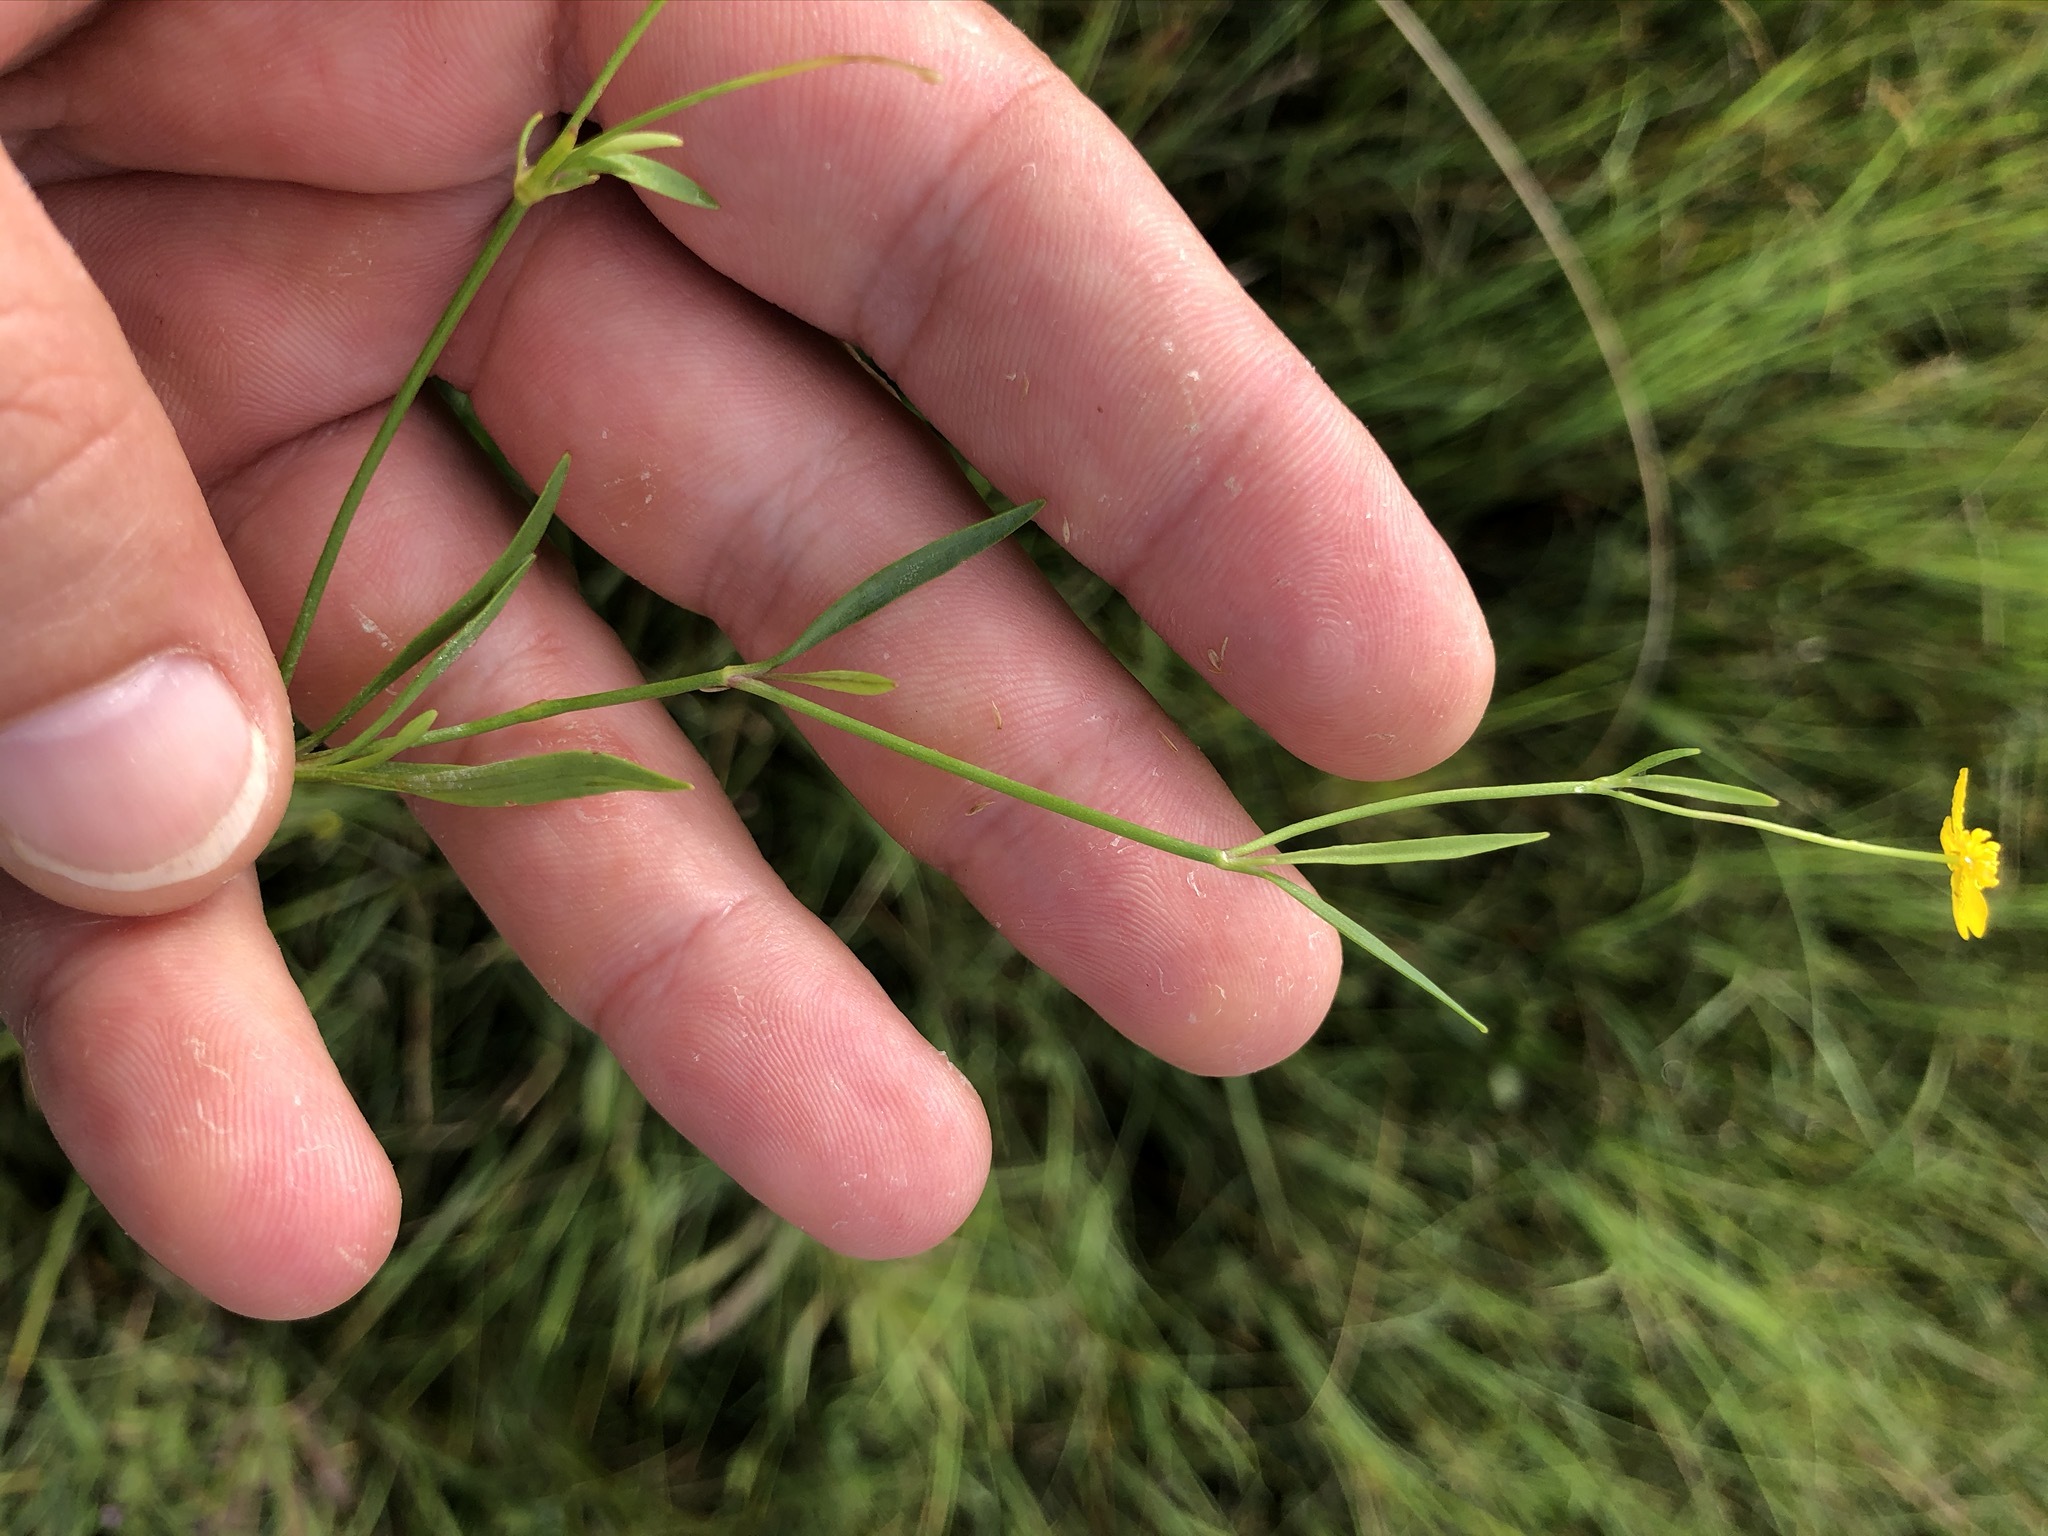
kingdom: Plantae
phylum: Tracheophyta
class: Magnoliopsida
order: Ranunculales
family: Ranunculaceae
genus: Ranunculus
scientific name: Ranunculus flammula
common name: Lesser spearwort
